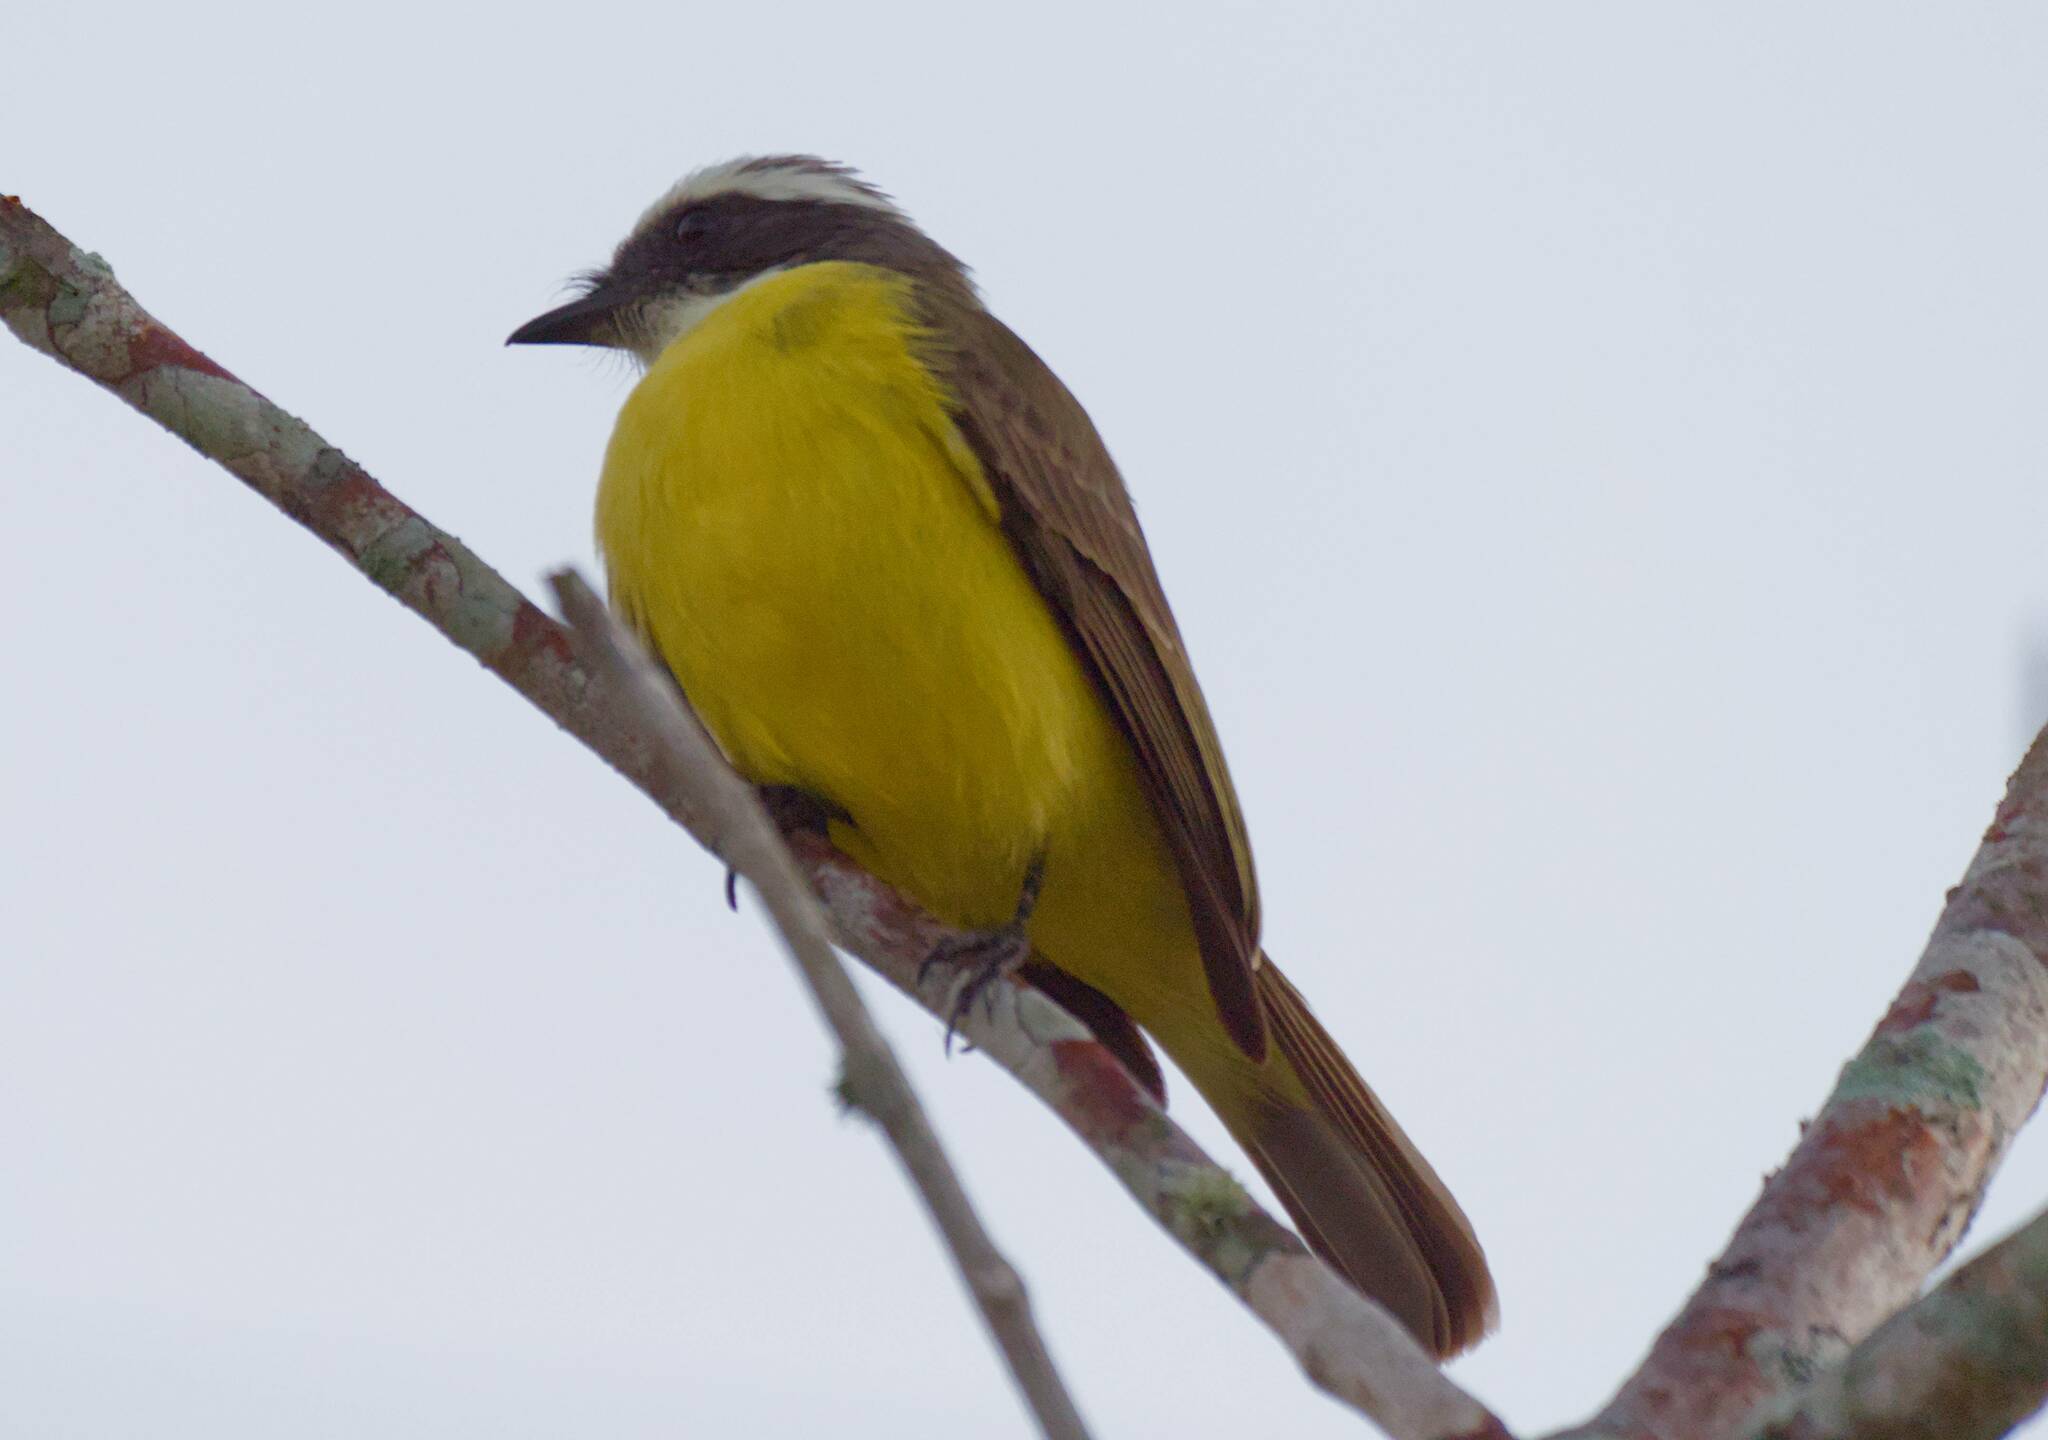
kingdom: Animalia
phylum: Chordata
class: Aves
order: Passeriformes
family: Tyrannidae
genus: Myiozetetes
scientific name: Myiozetetes similis
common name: Social flycatcher
